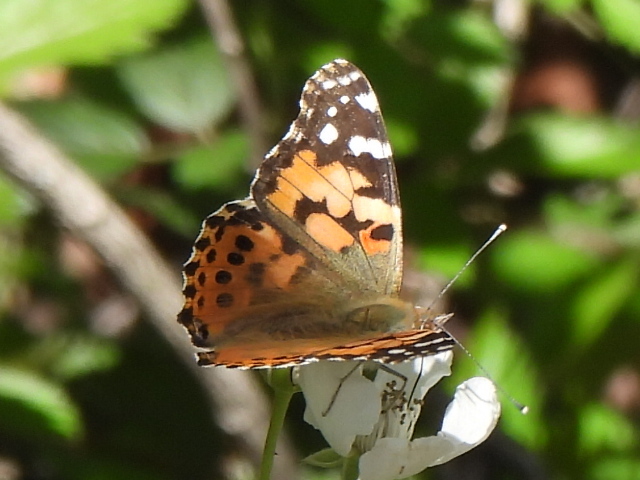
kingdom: Animalia
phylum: Arthropoda
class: Insecta
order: Lepidoptera
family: Nymphalidae
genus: Vanessa
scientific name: Vanessa cardui
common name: Painted lady
